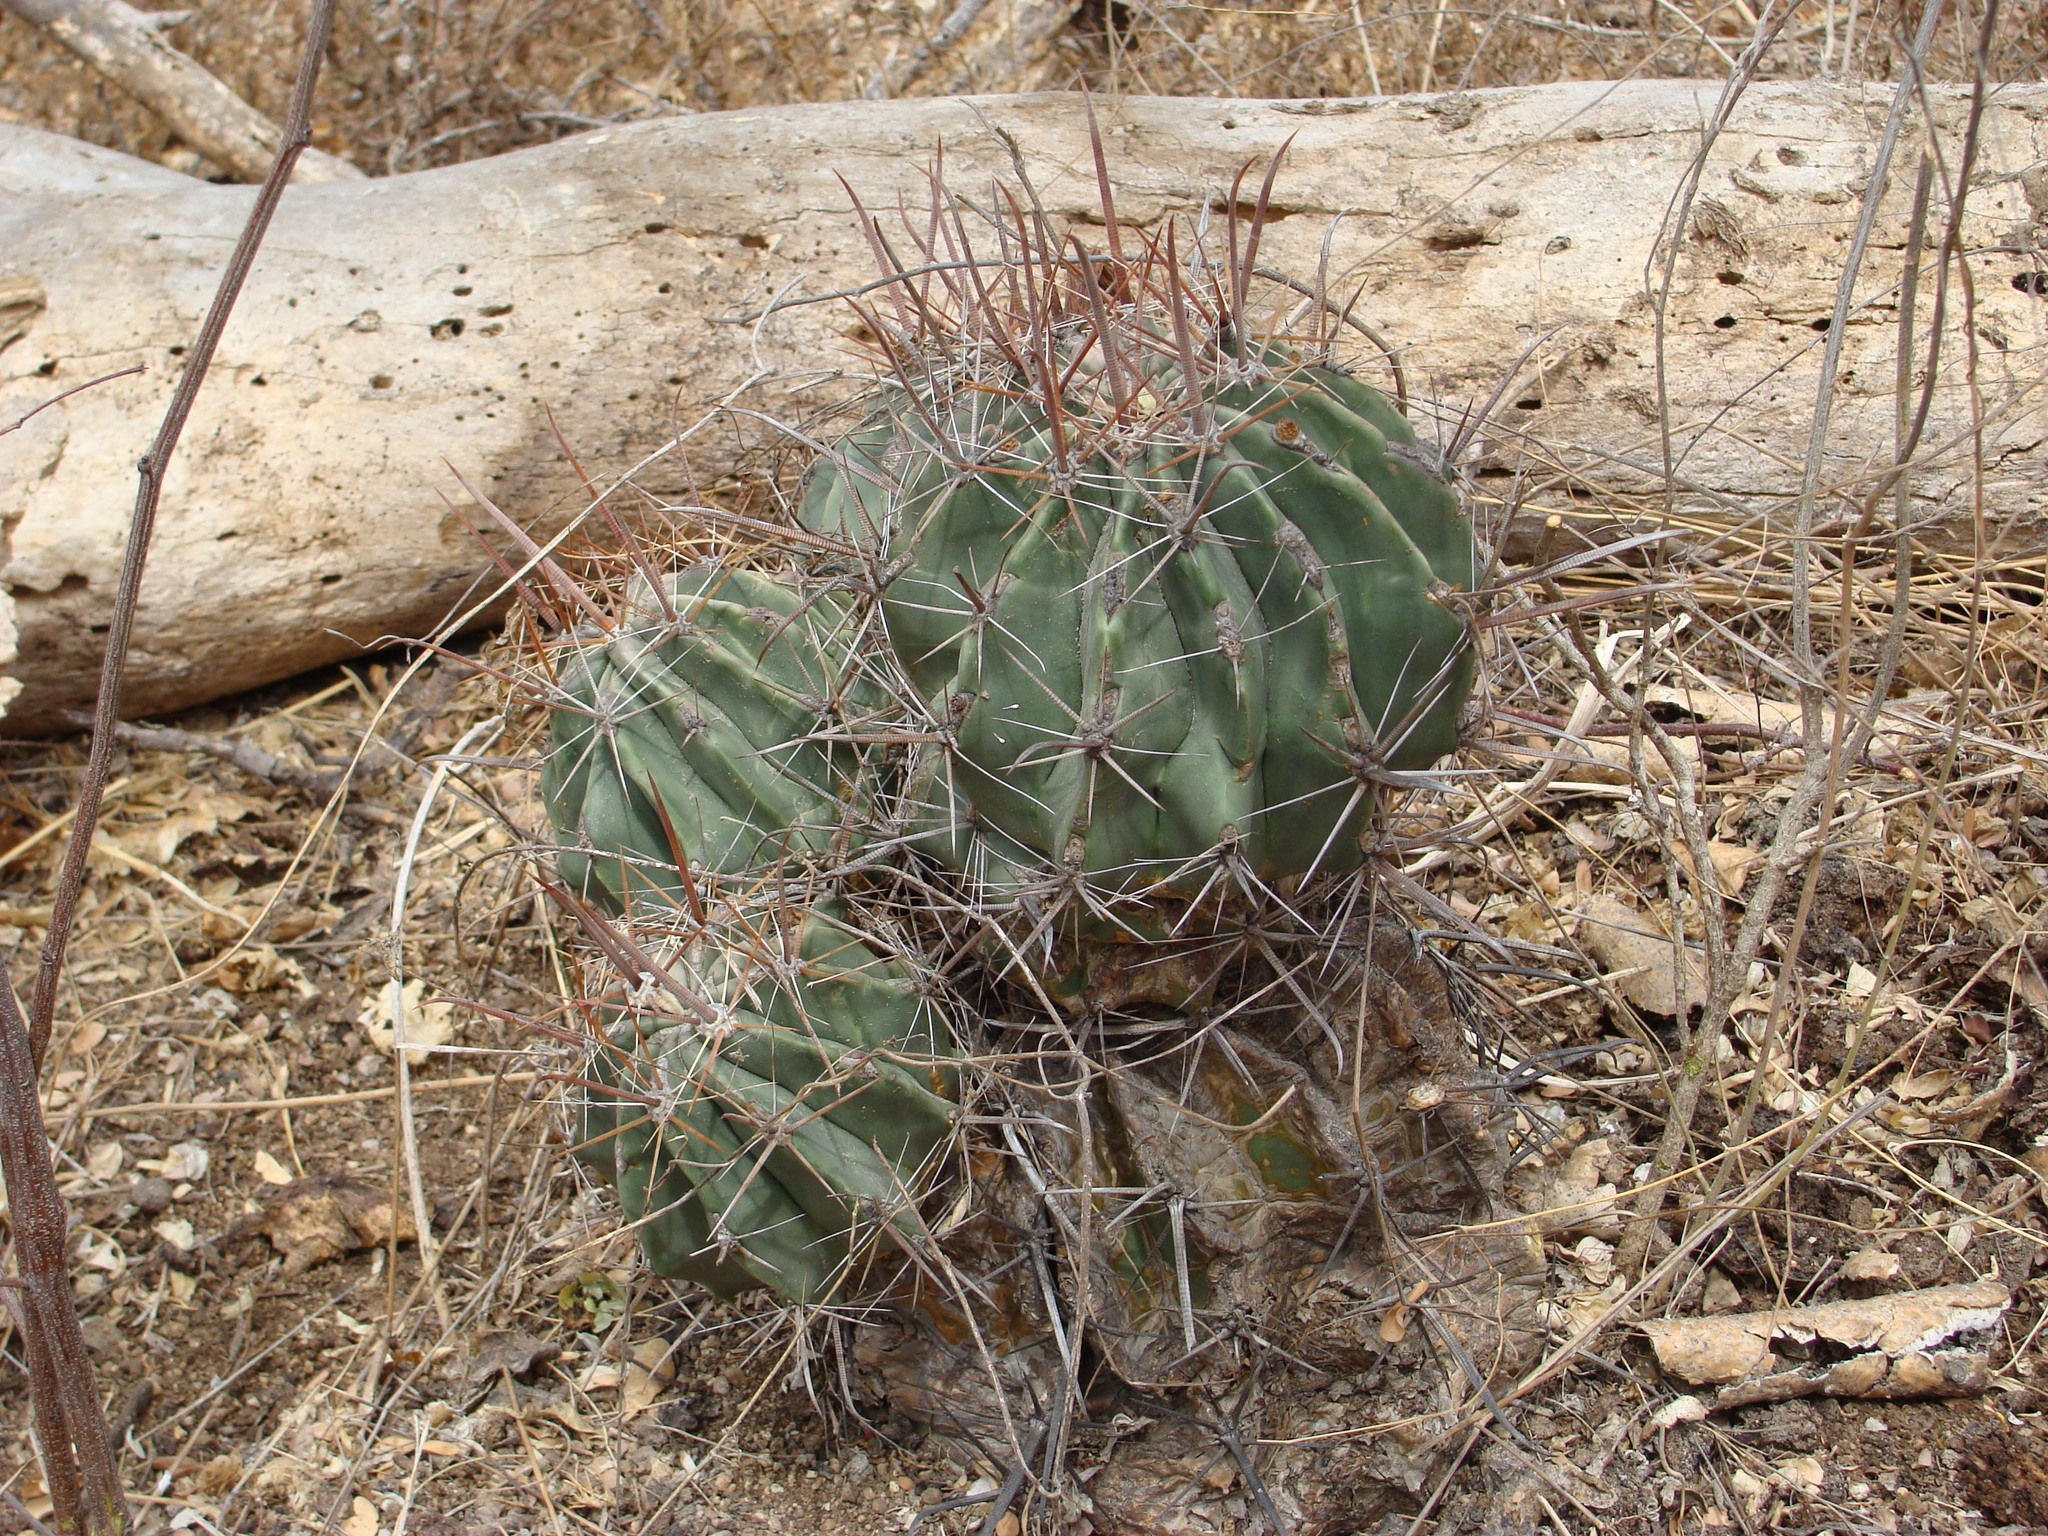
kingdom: Plantae
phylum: Tracheophyta
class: Magnoliopsida
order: Caryophyllales
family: Cactaceae
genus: Ferocactus
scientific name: Ferocactus townsendianus
